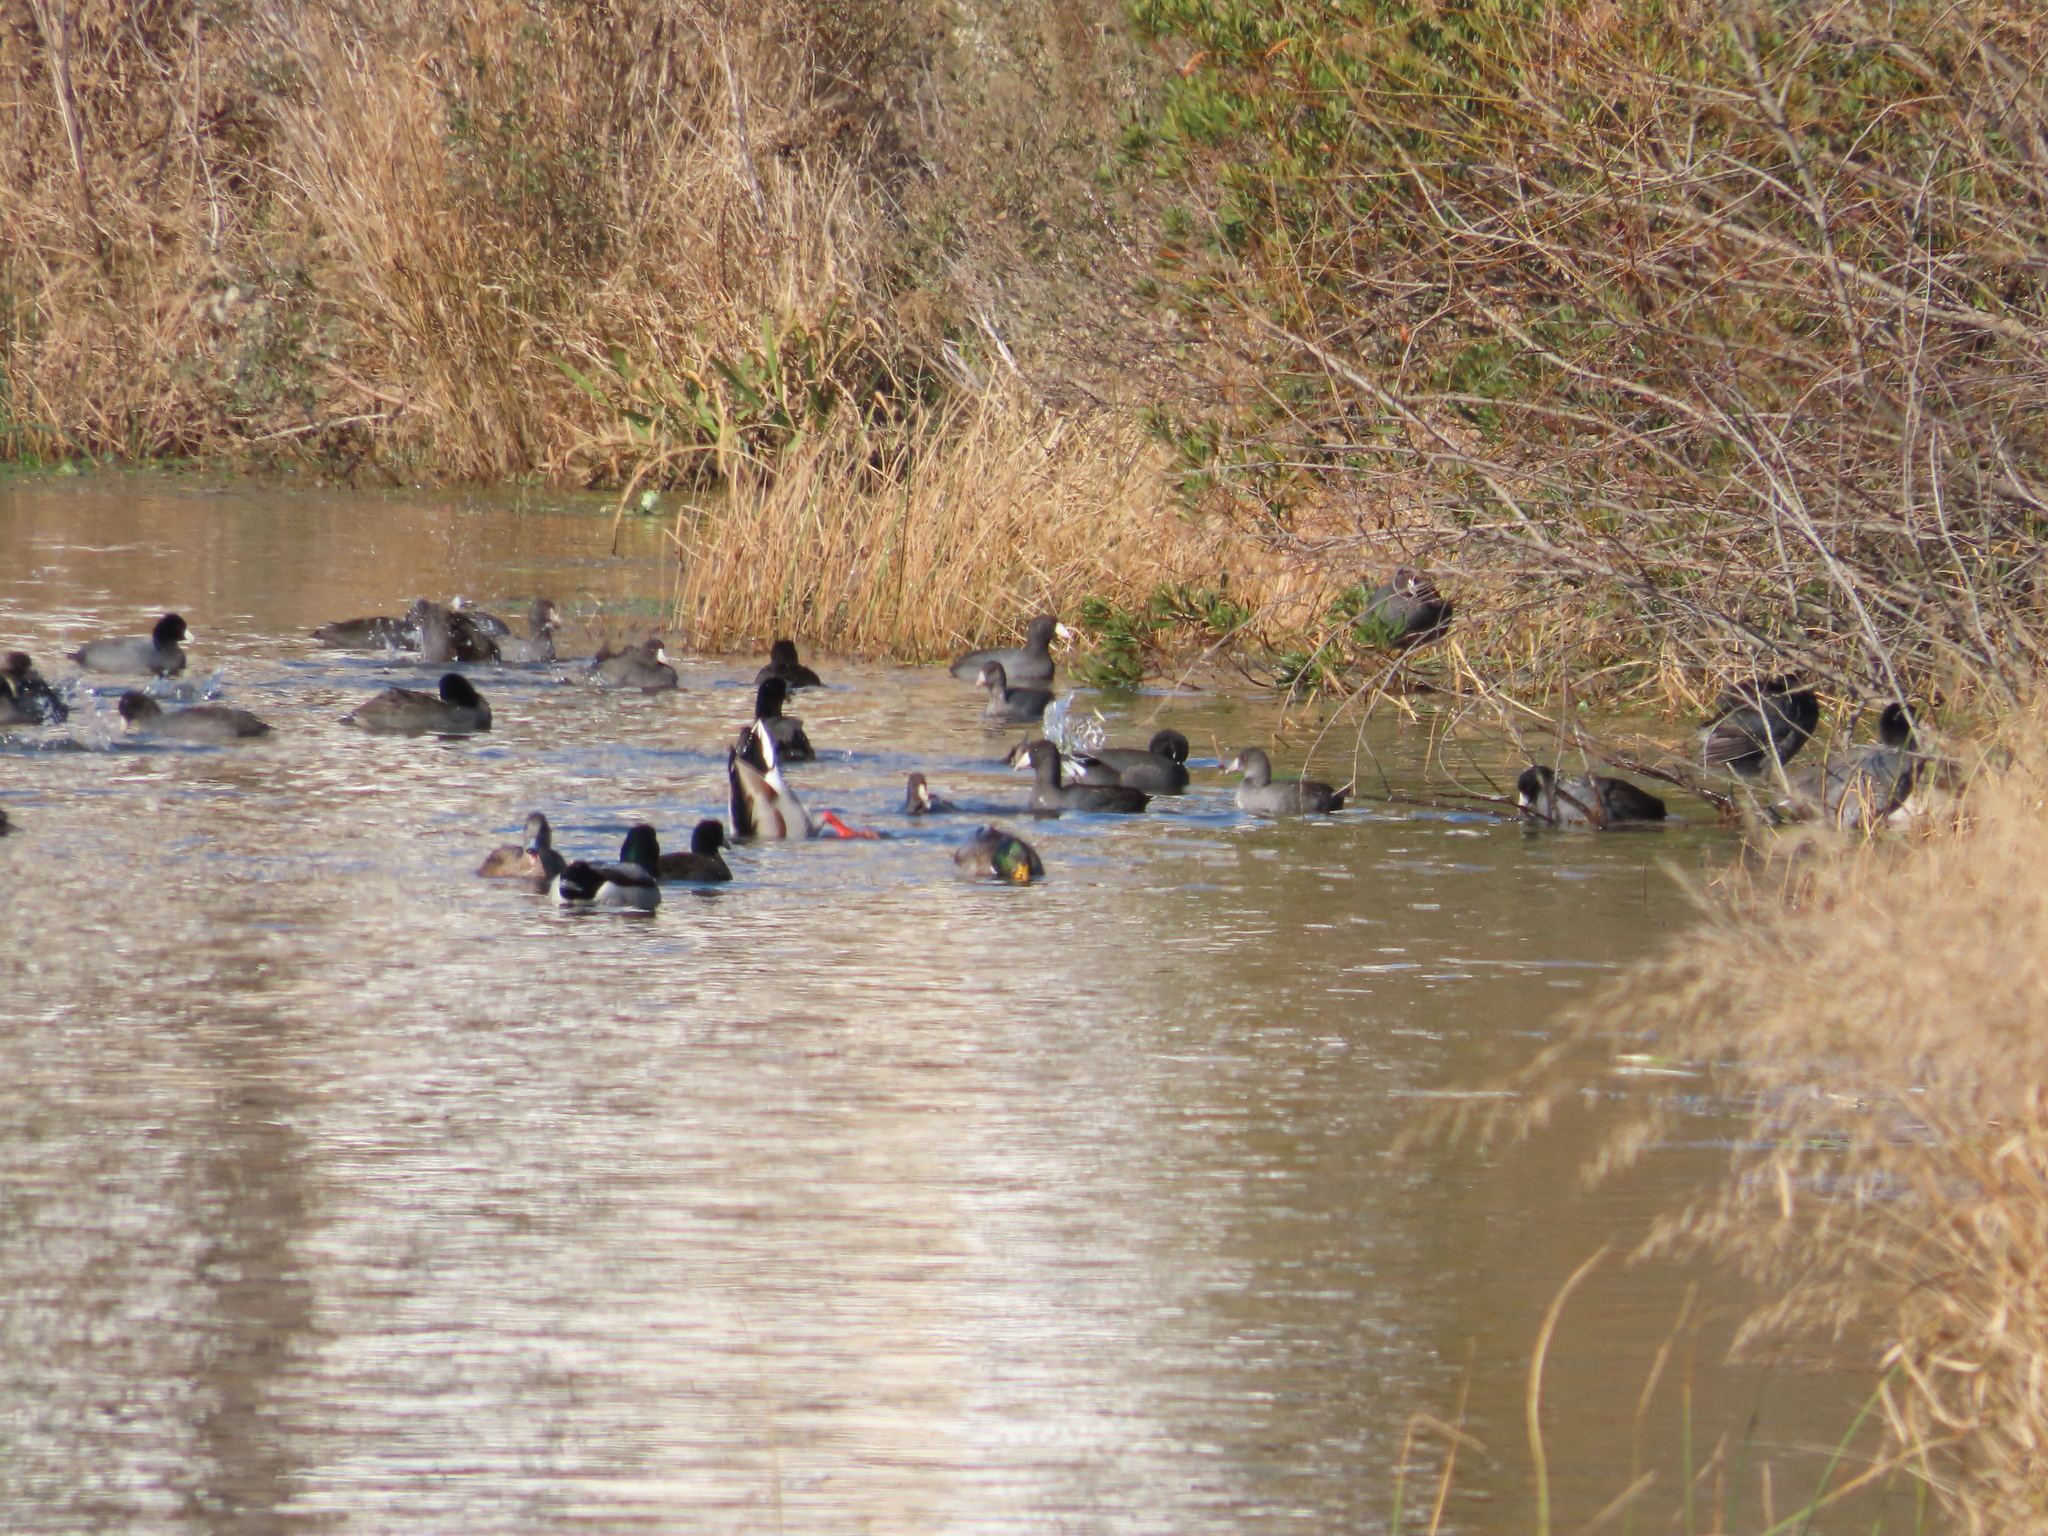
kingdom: Animalia
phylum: Chordata
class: Aves
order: Gruiformes
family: Rallidae
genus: Fulica
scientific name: Fulica americana
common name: American coot
